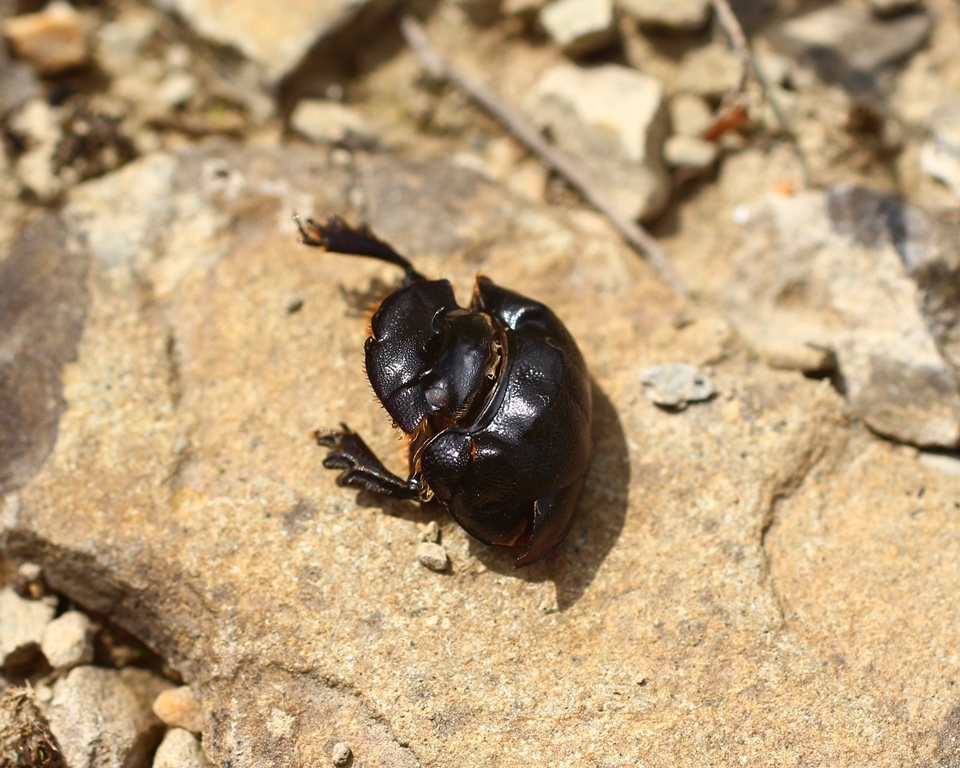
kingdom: Animalia
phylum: Arthropoda
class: Insecta
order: Coleoptera
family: Scarabaeidae
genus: Copris
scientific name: Copris lunaris
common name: Horned dung beetle
